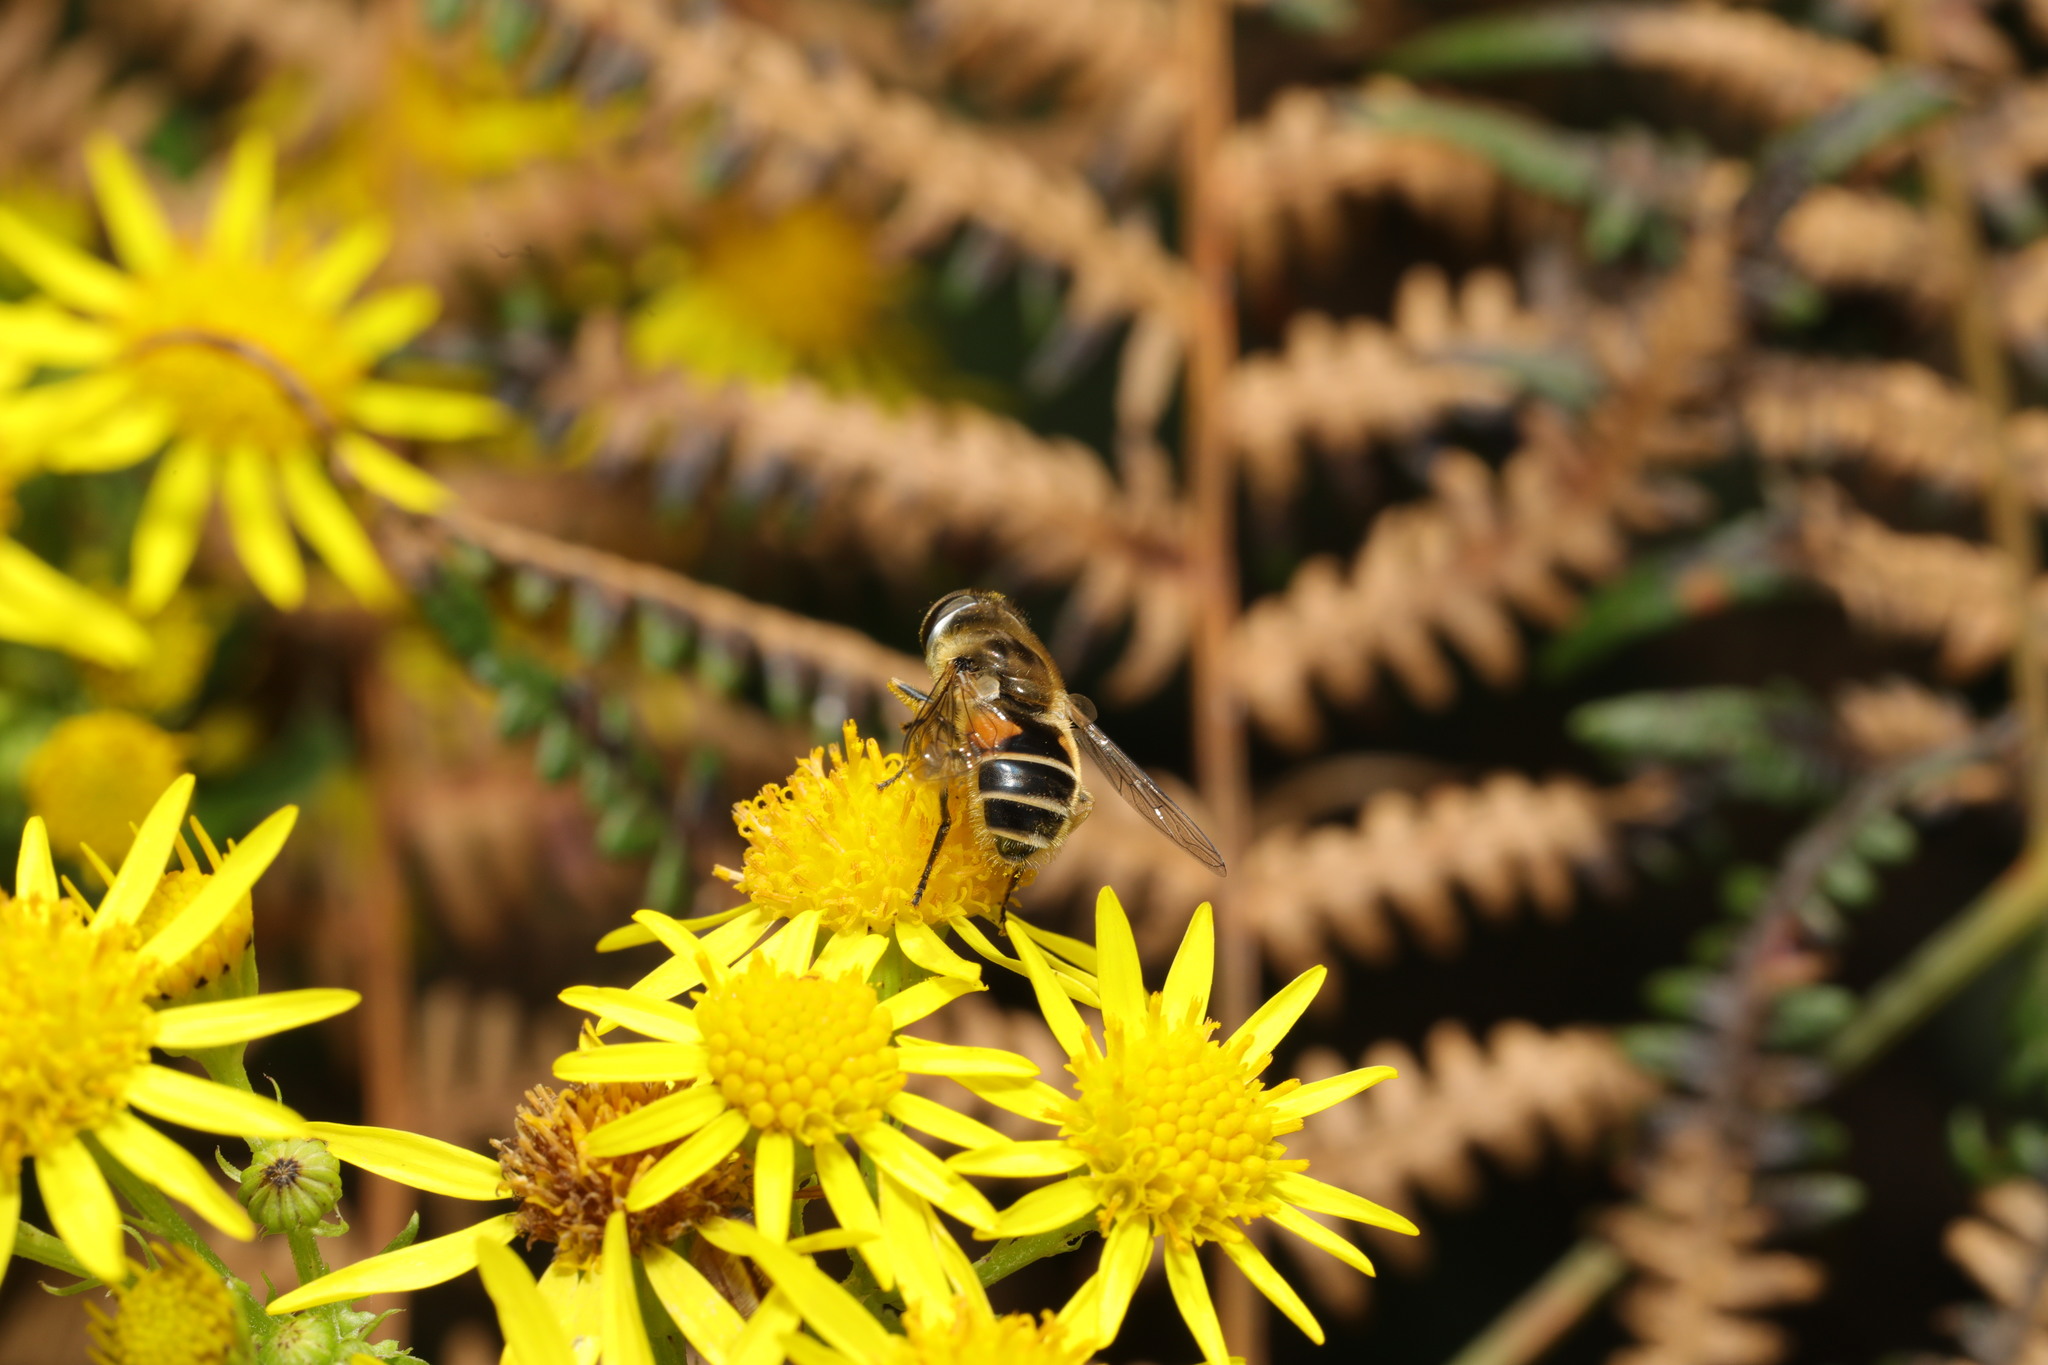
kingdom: Animalia
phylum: Arthropoda
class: Insecta
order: Diptera
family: Syrphidae
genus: Eristalis
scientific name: Eristalis
